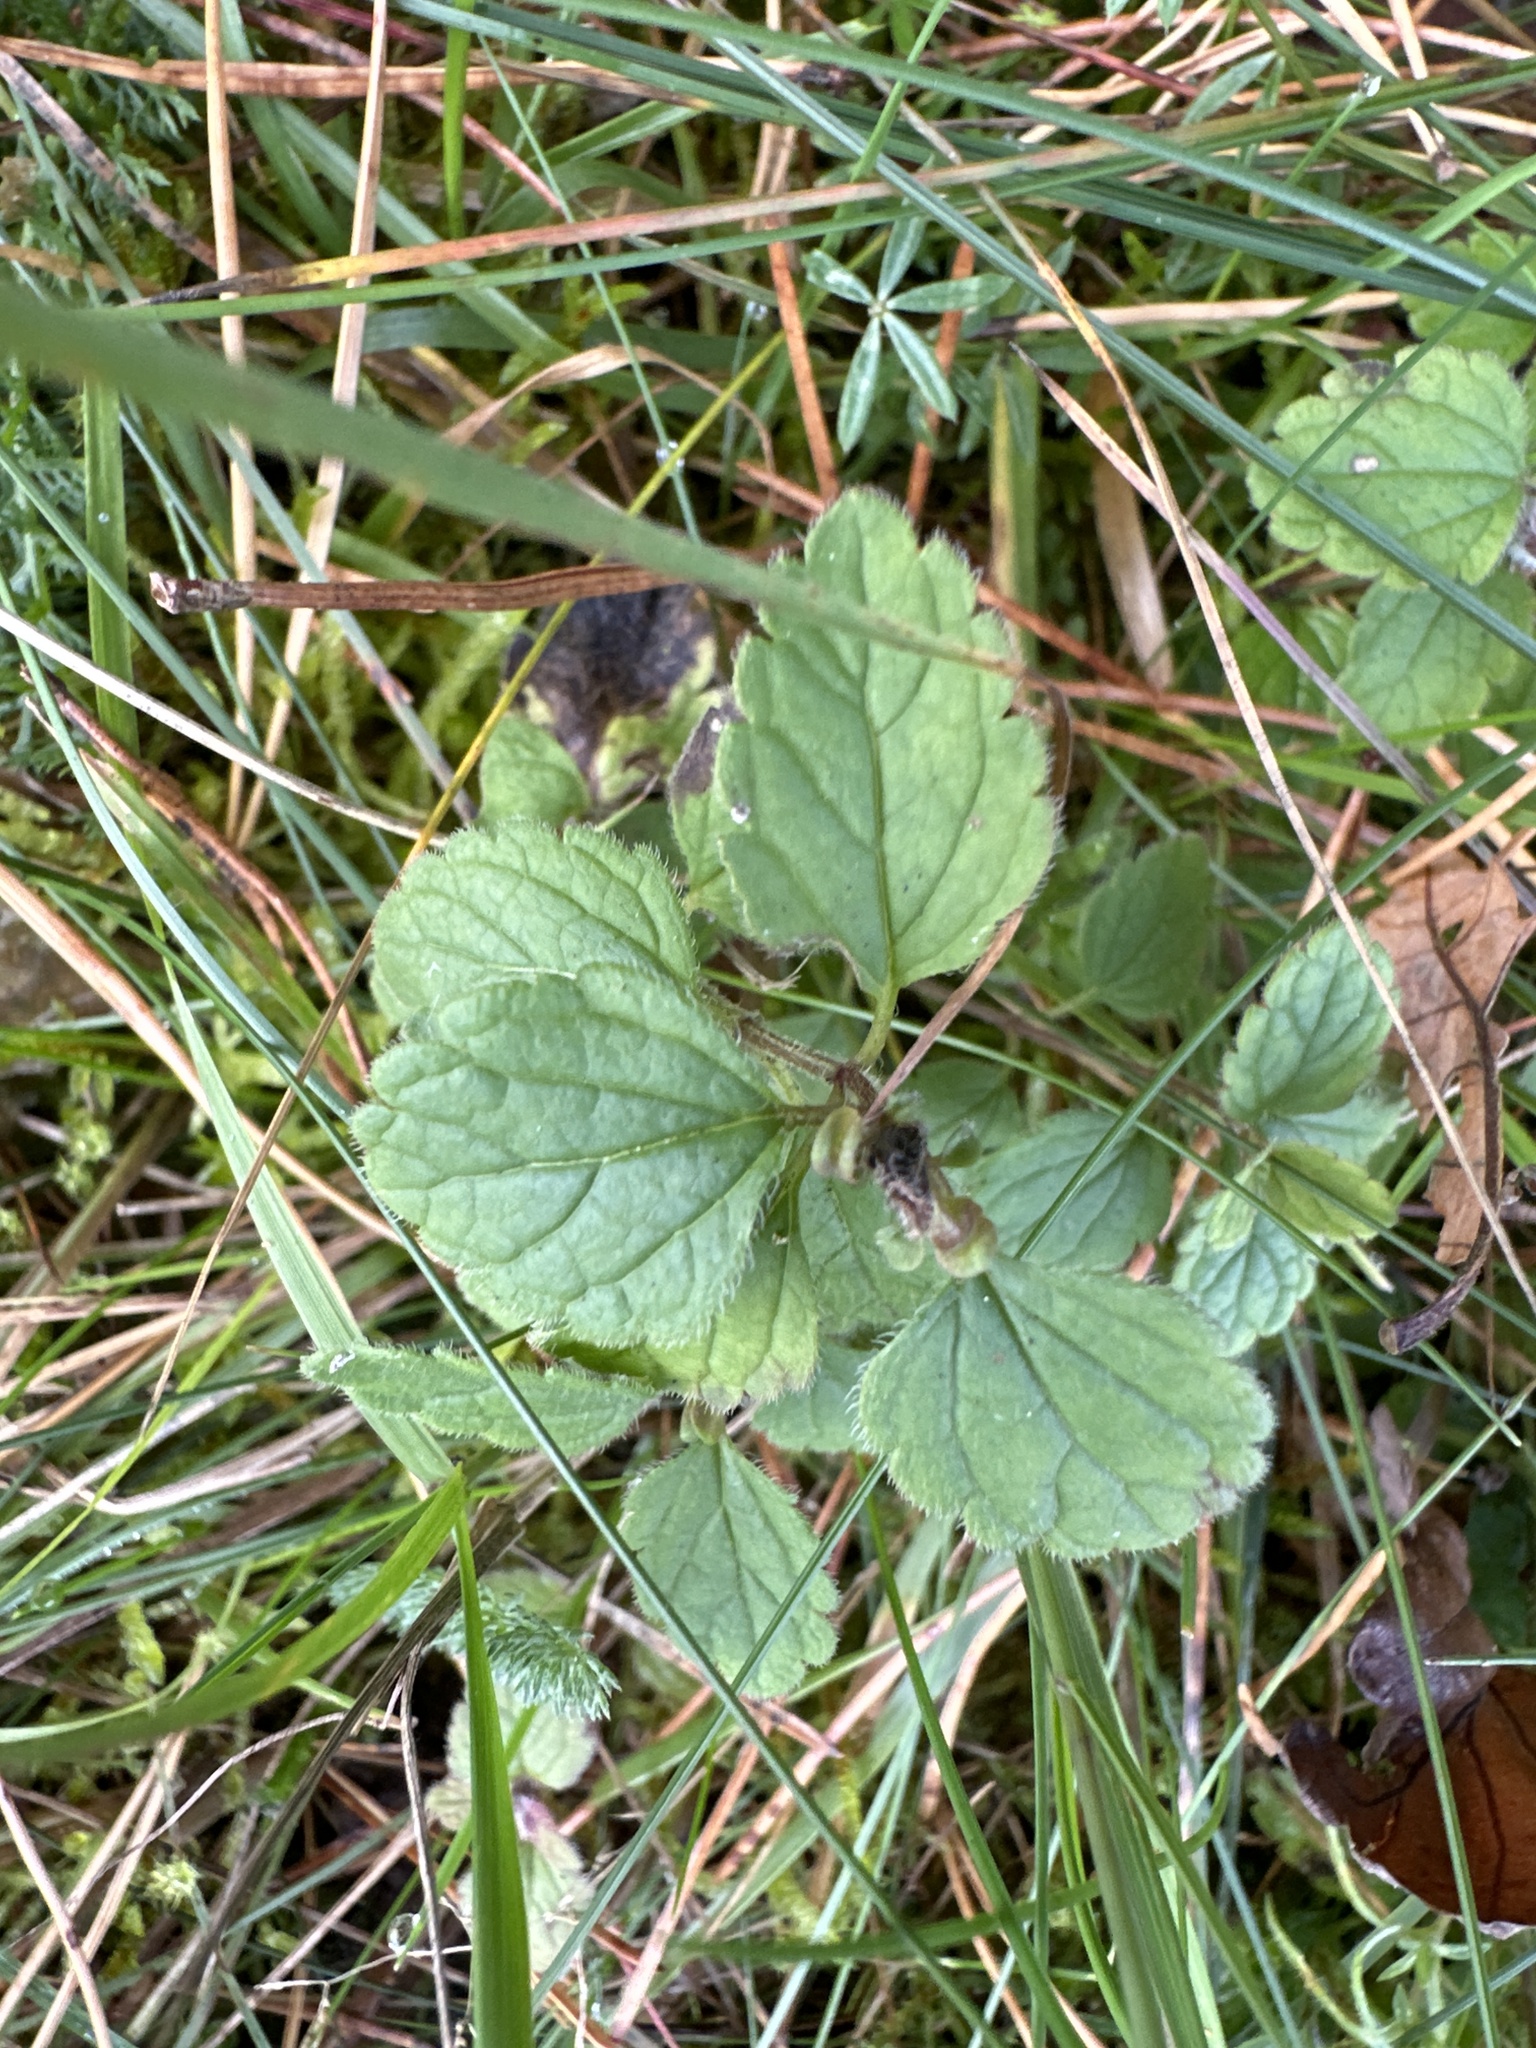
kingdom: Plantae
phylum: Tracheophyta
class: Magnoliopsida
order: Lamiales
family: Plantaginaceae
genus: Veronica
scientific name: Veronica chamaedrys
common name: Germander speedwell
